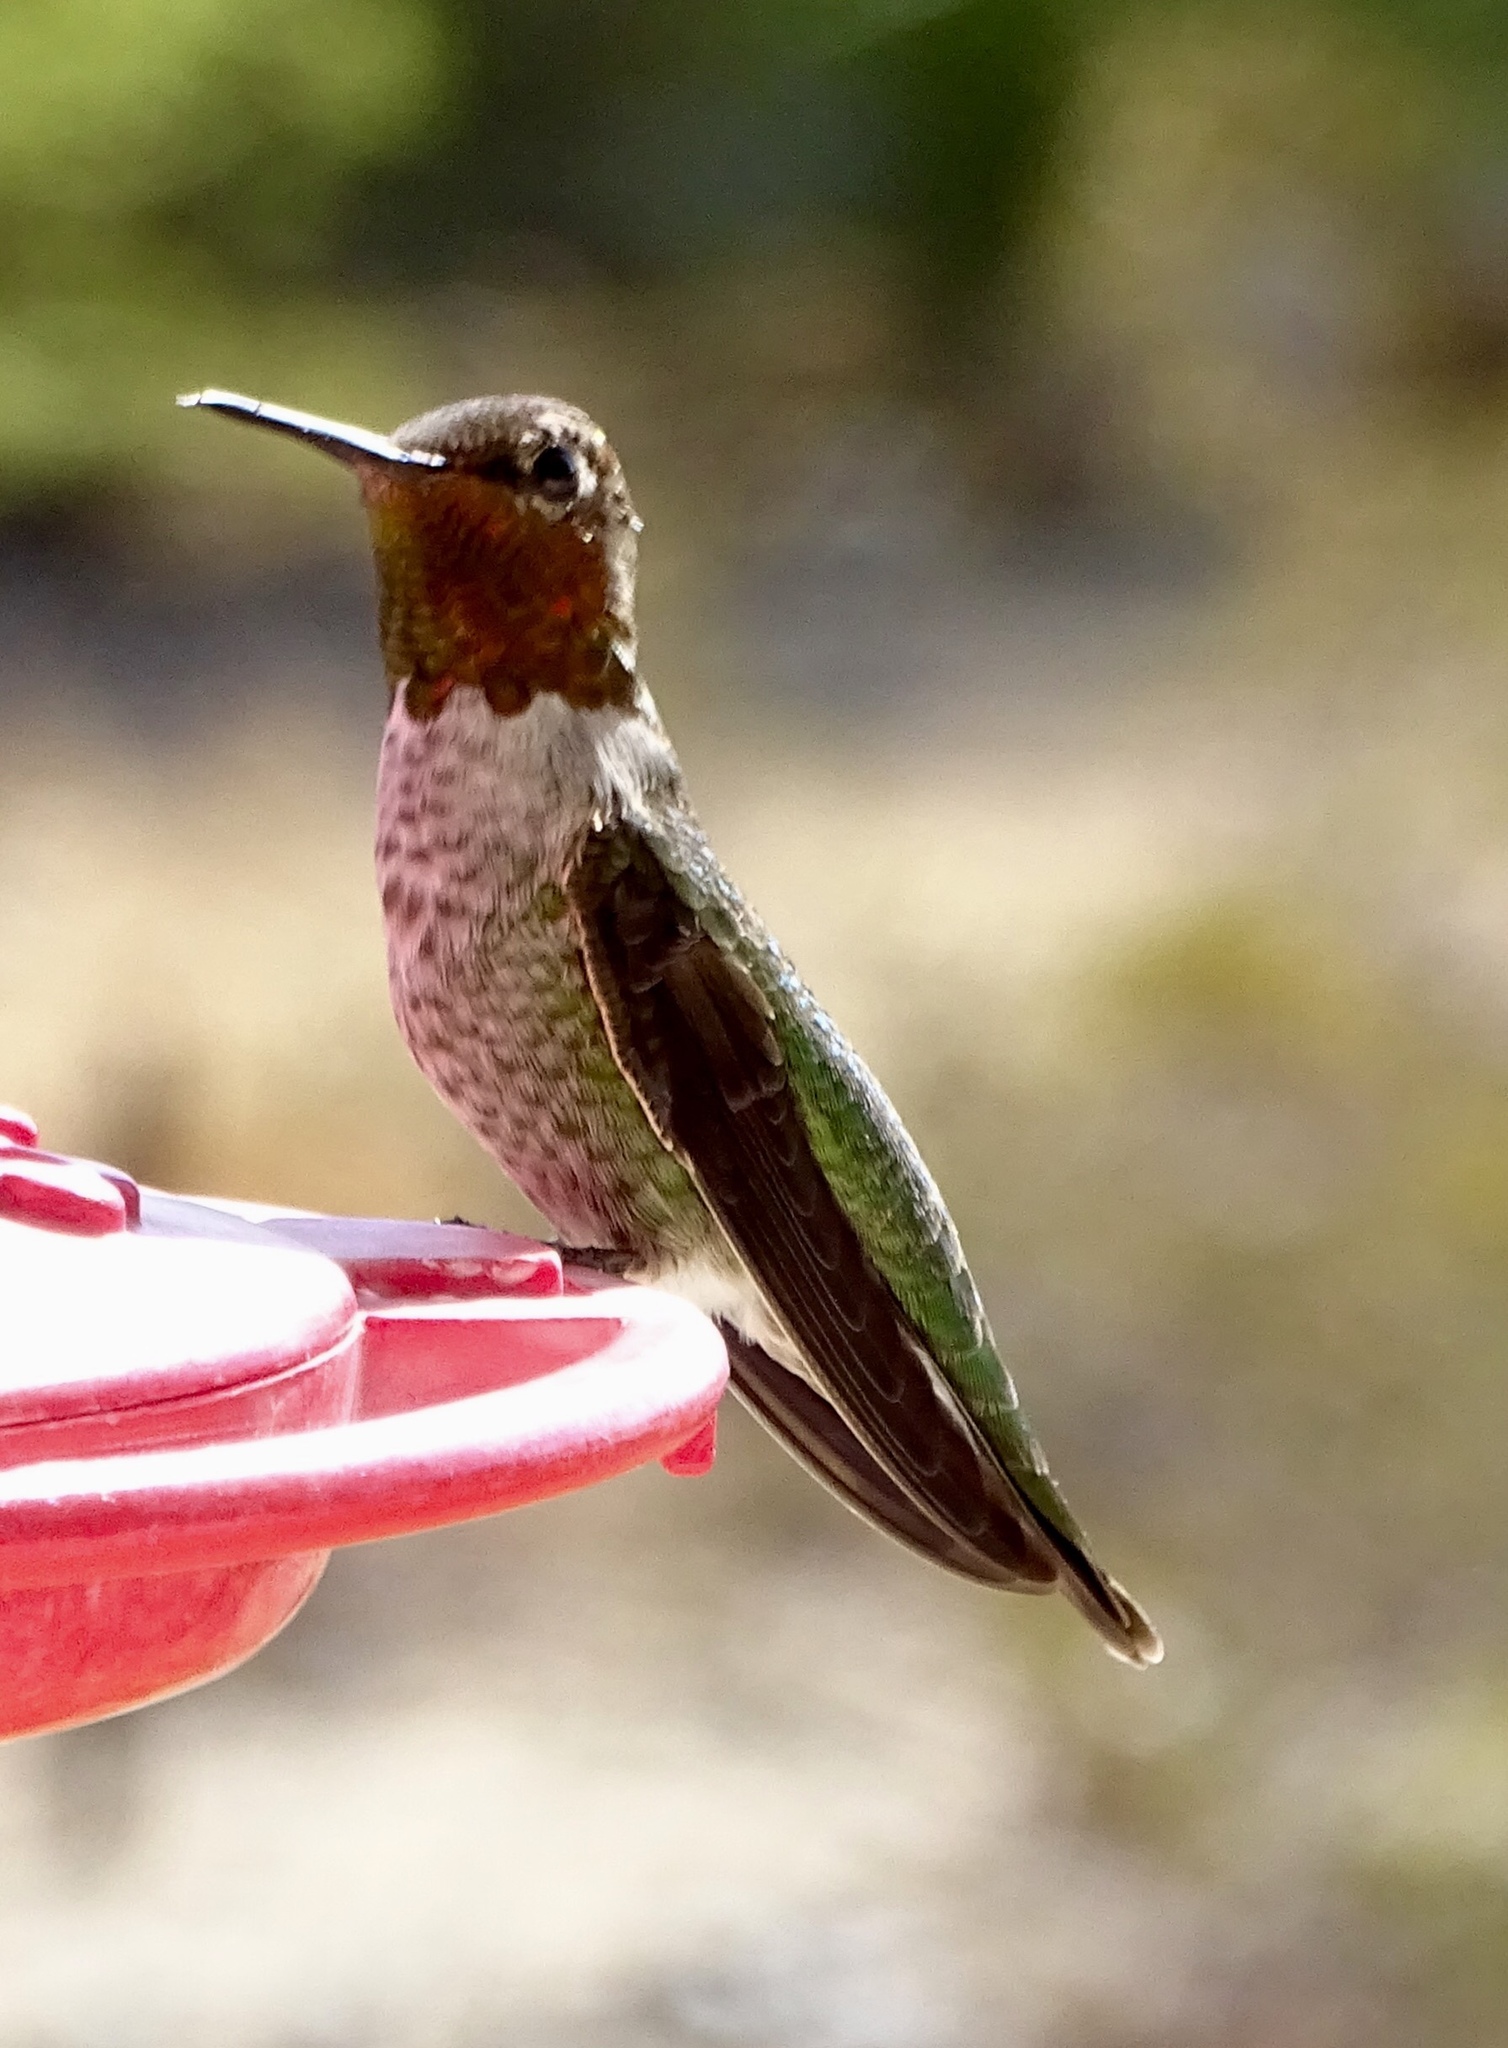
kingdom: Animalia
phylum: Chordata
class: Aves
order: Apodiformes
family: Trochilidae
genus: Calypte
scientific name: Calypte anna
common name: Anna's hummingbird
